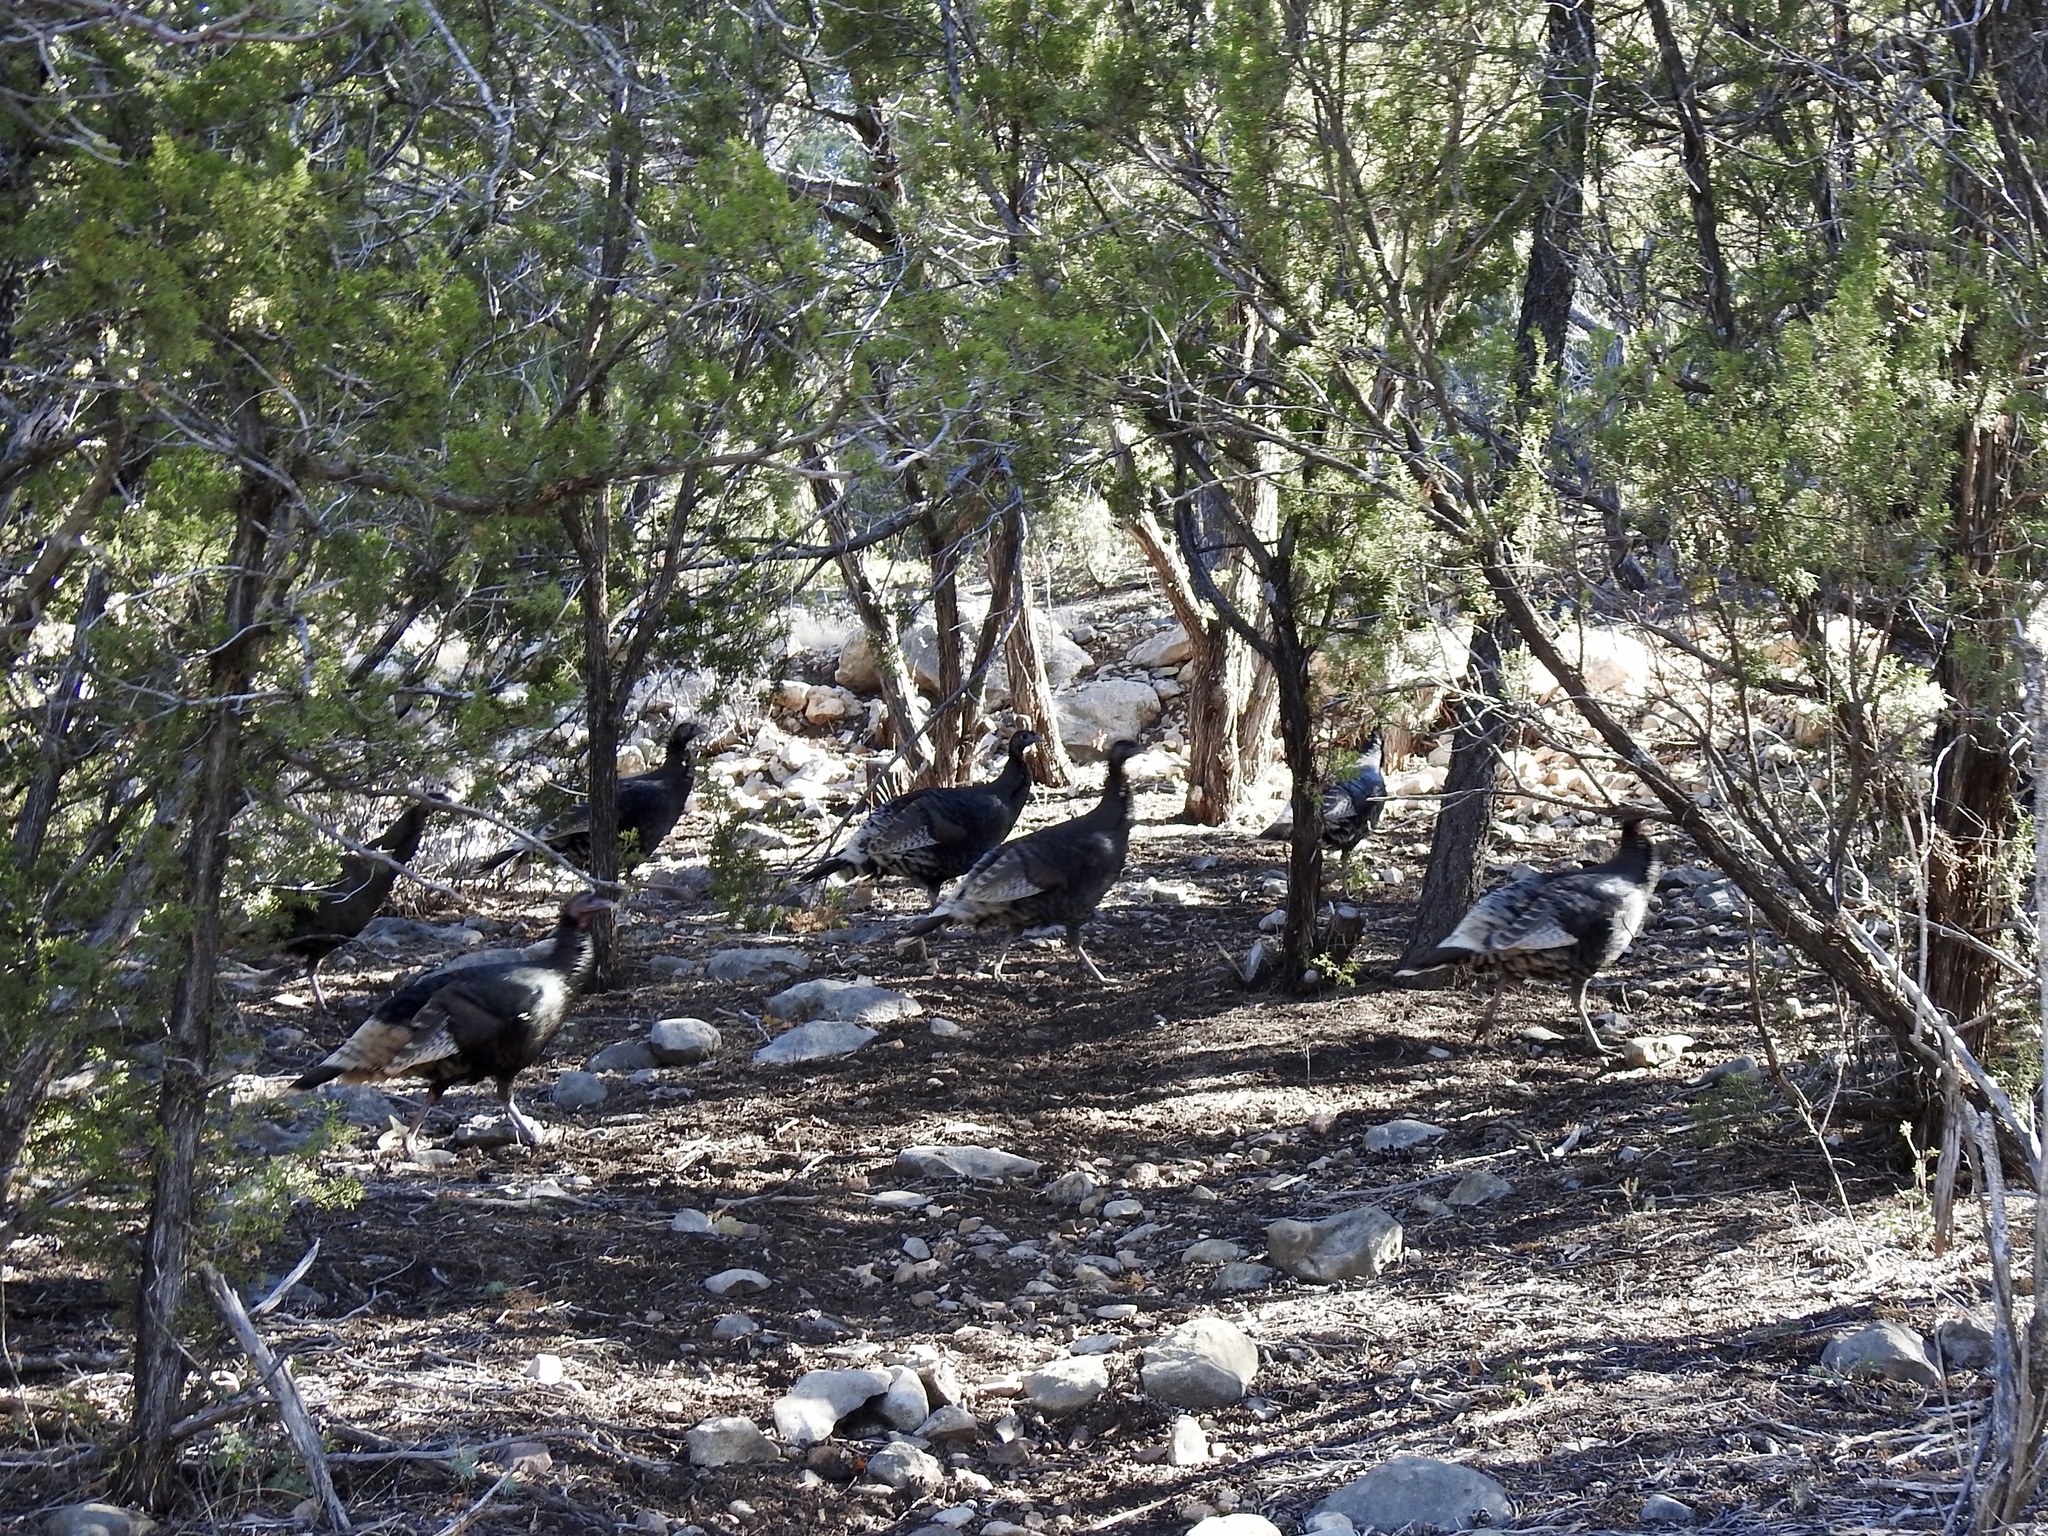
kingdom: Animalia
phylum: Chordata
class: Aves
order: Galliformes
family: Phasianidae
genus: Meleagris
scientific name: Meleagris gallopavo
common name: Wild turkey
